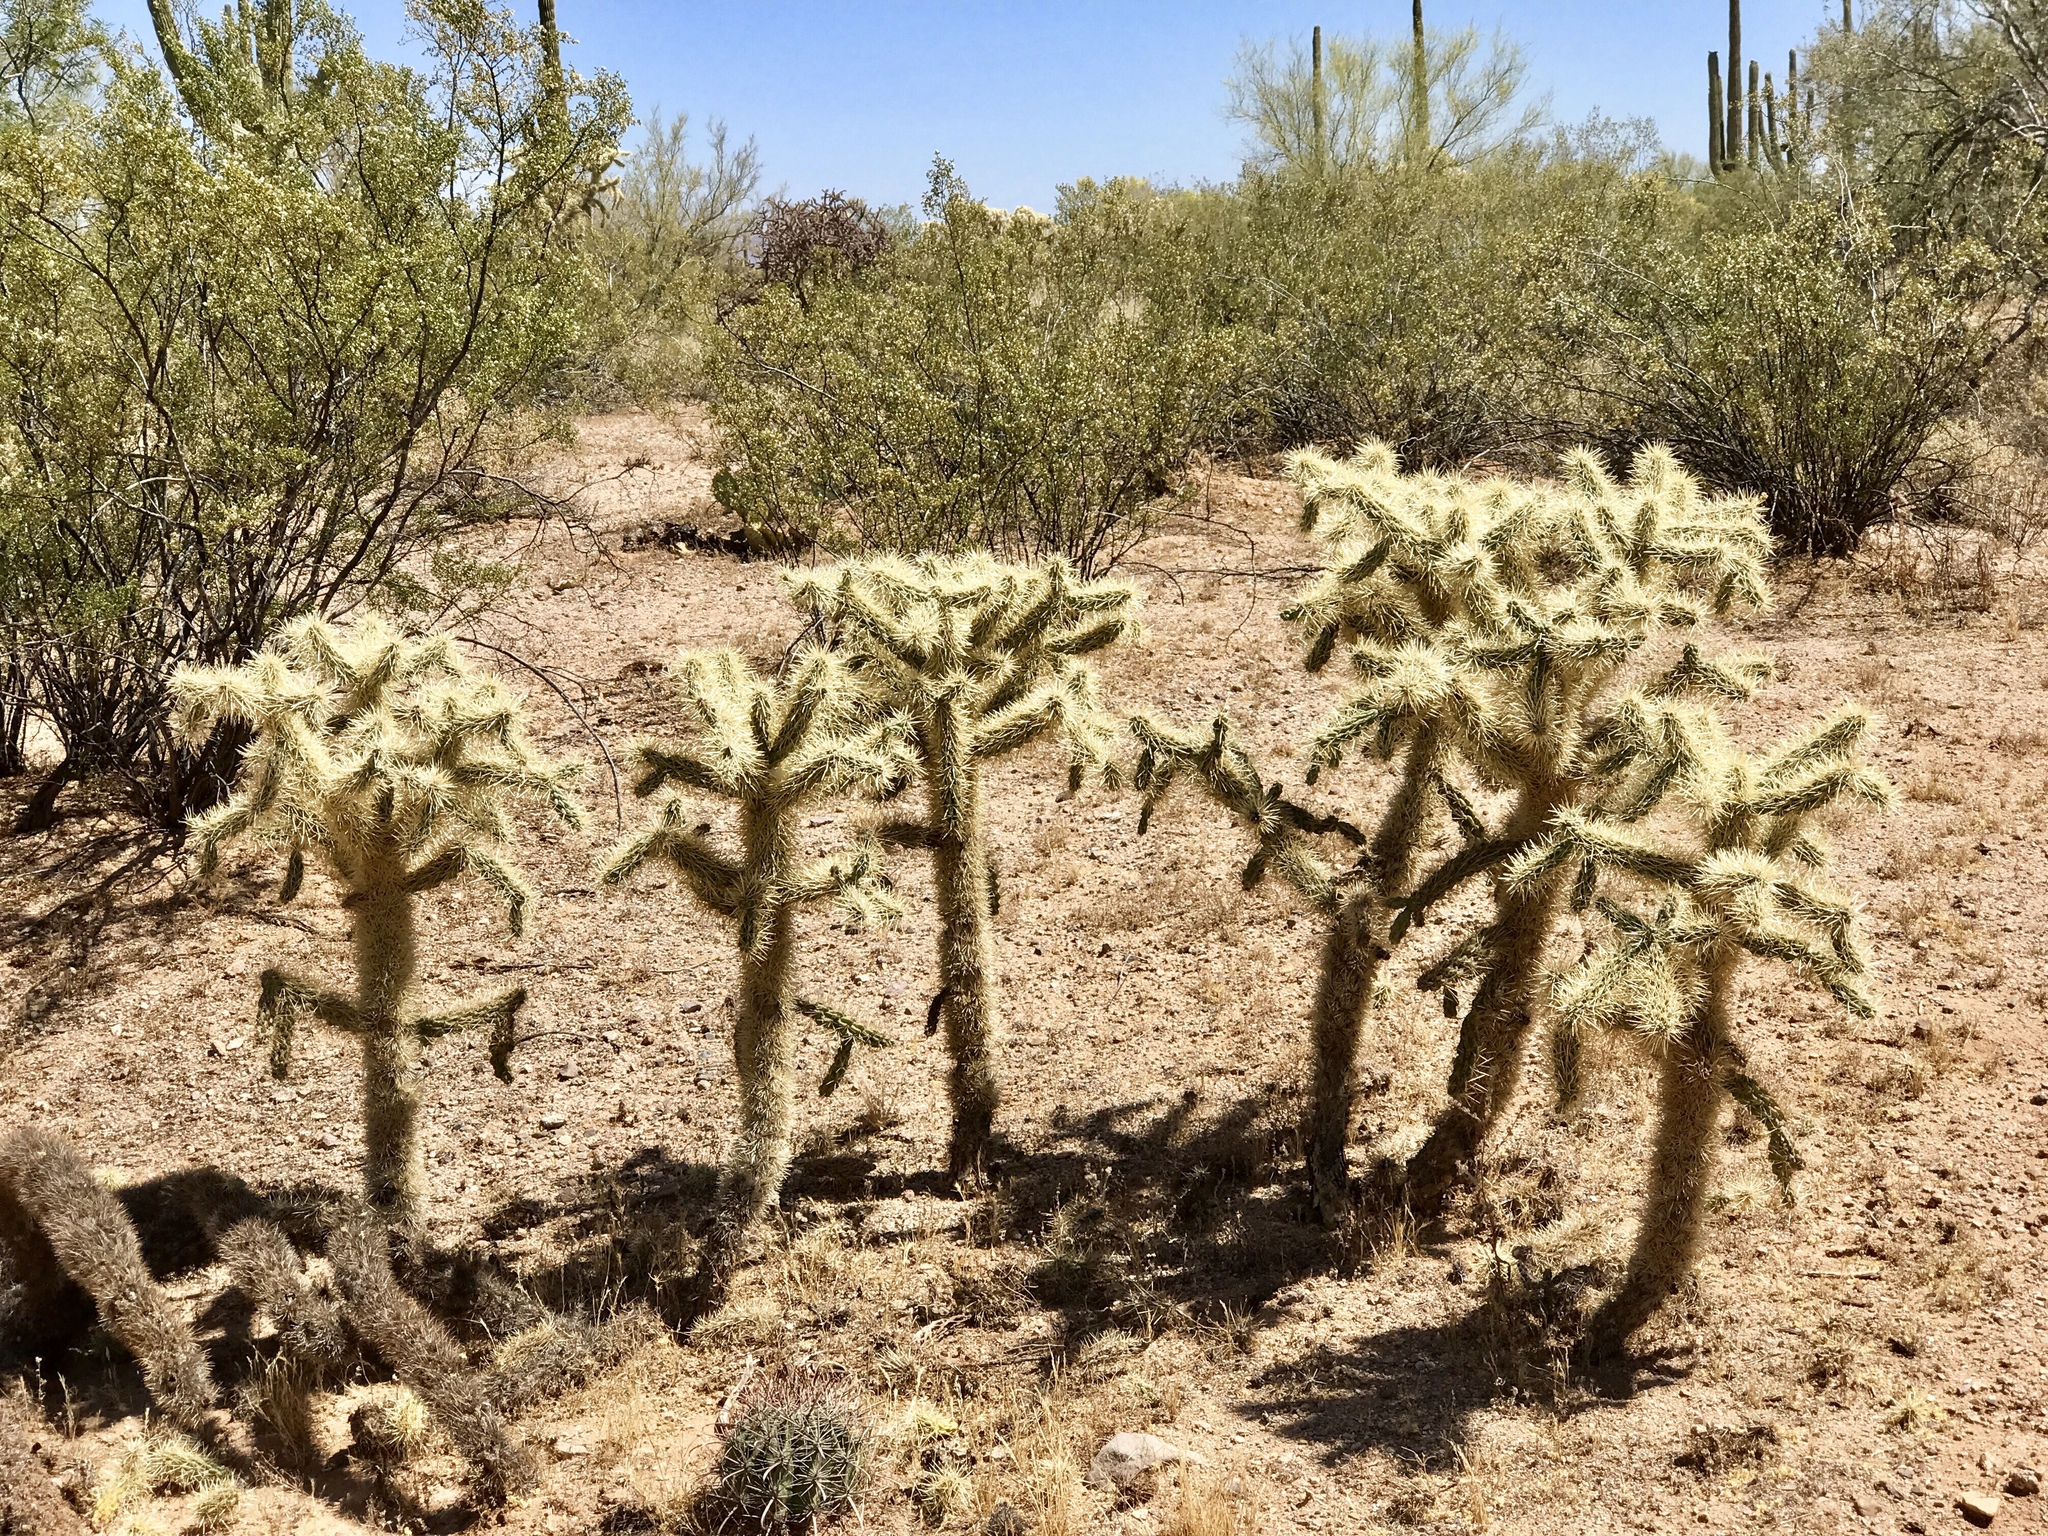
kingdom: Plantae
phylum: Tracheophyta
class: Magnoliopsida
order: Caryophyllales
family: Cactaceae
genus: Cylindropuntia
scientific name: Cylindropuntia fulgida
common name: Jumping cholla
